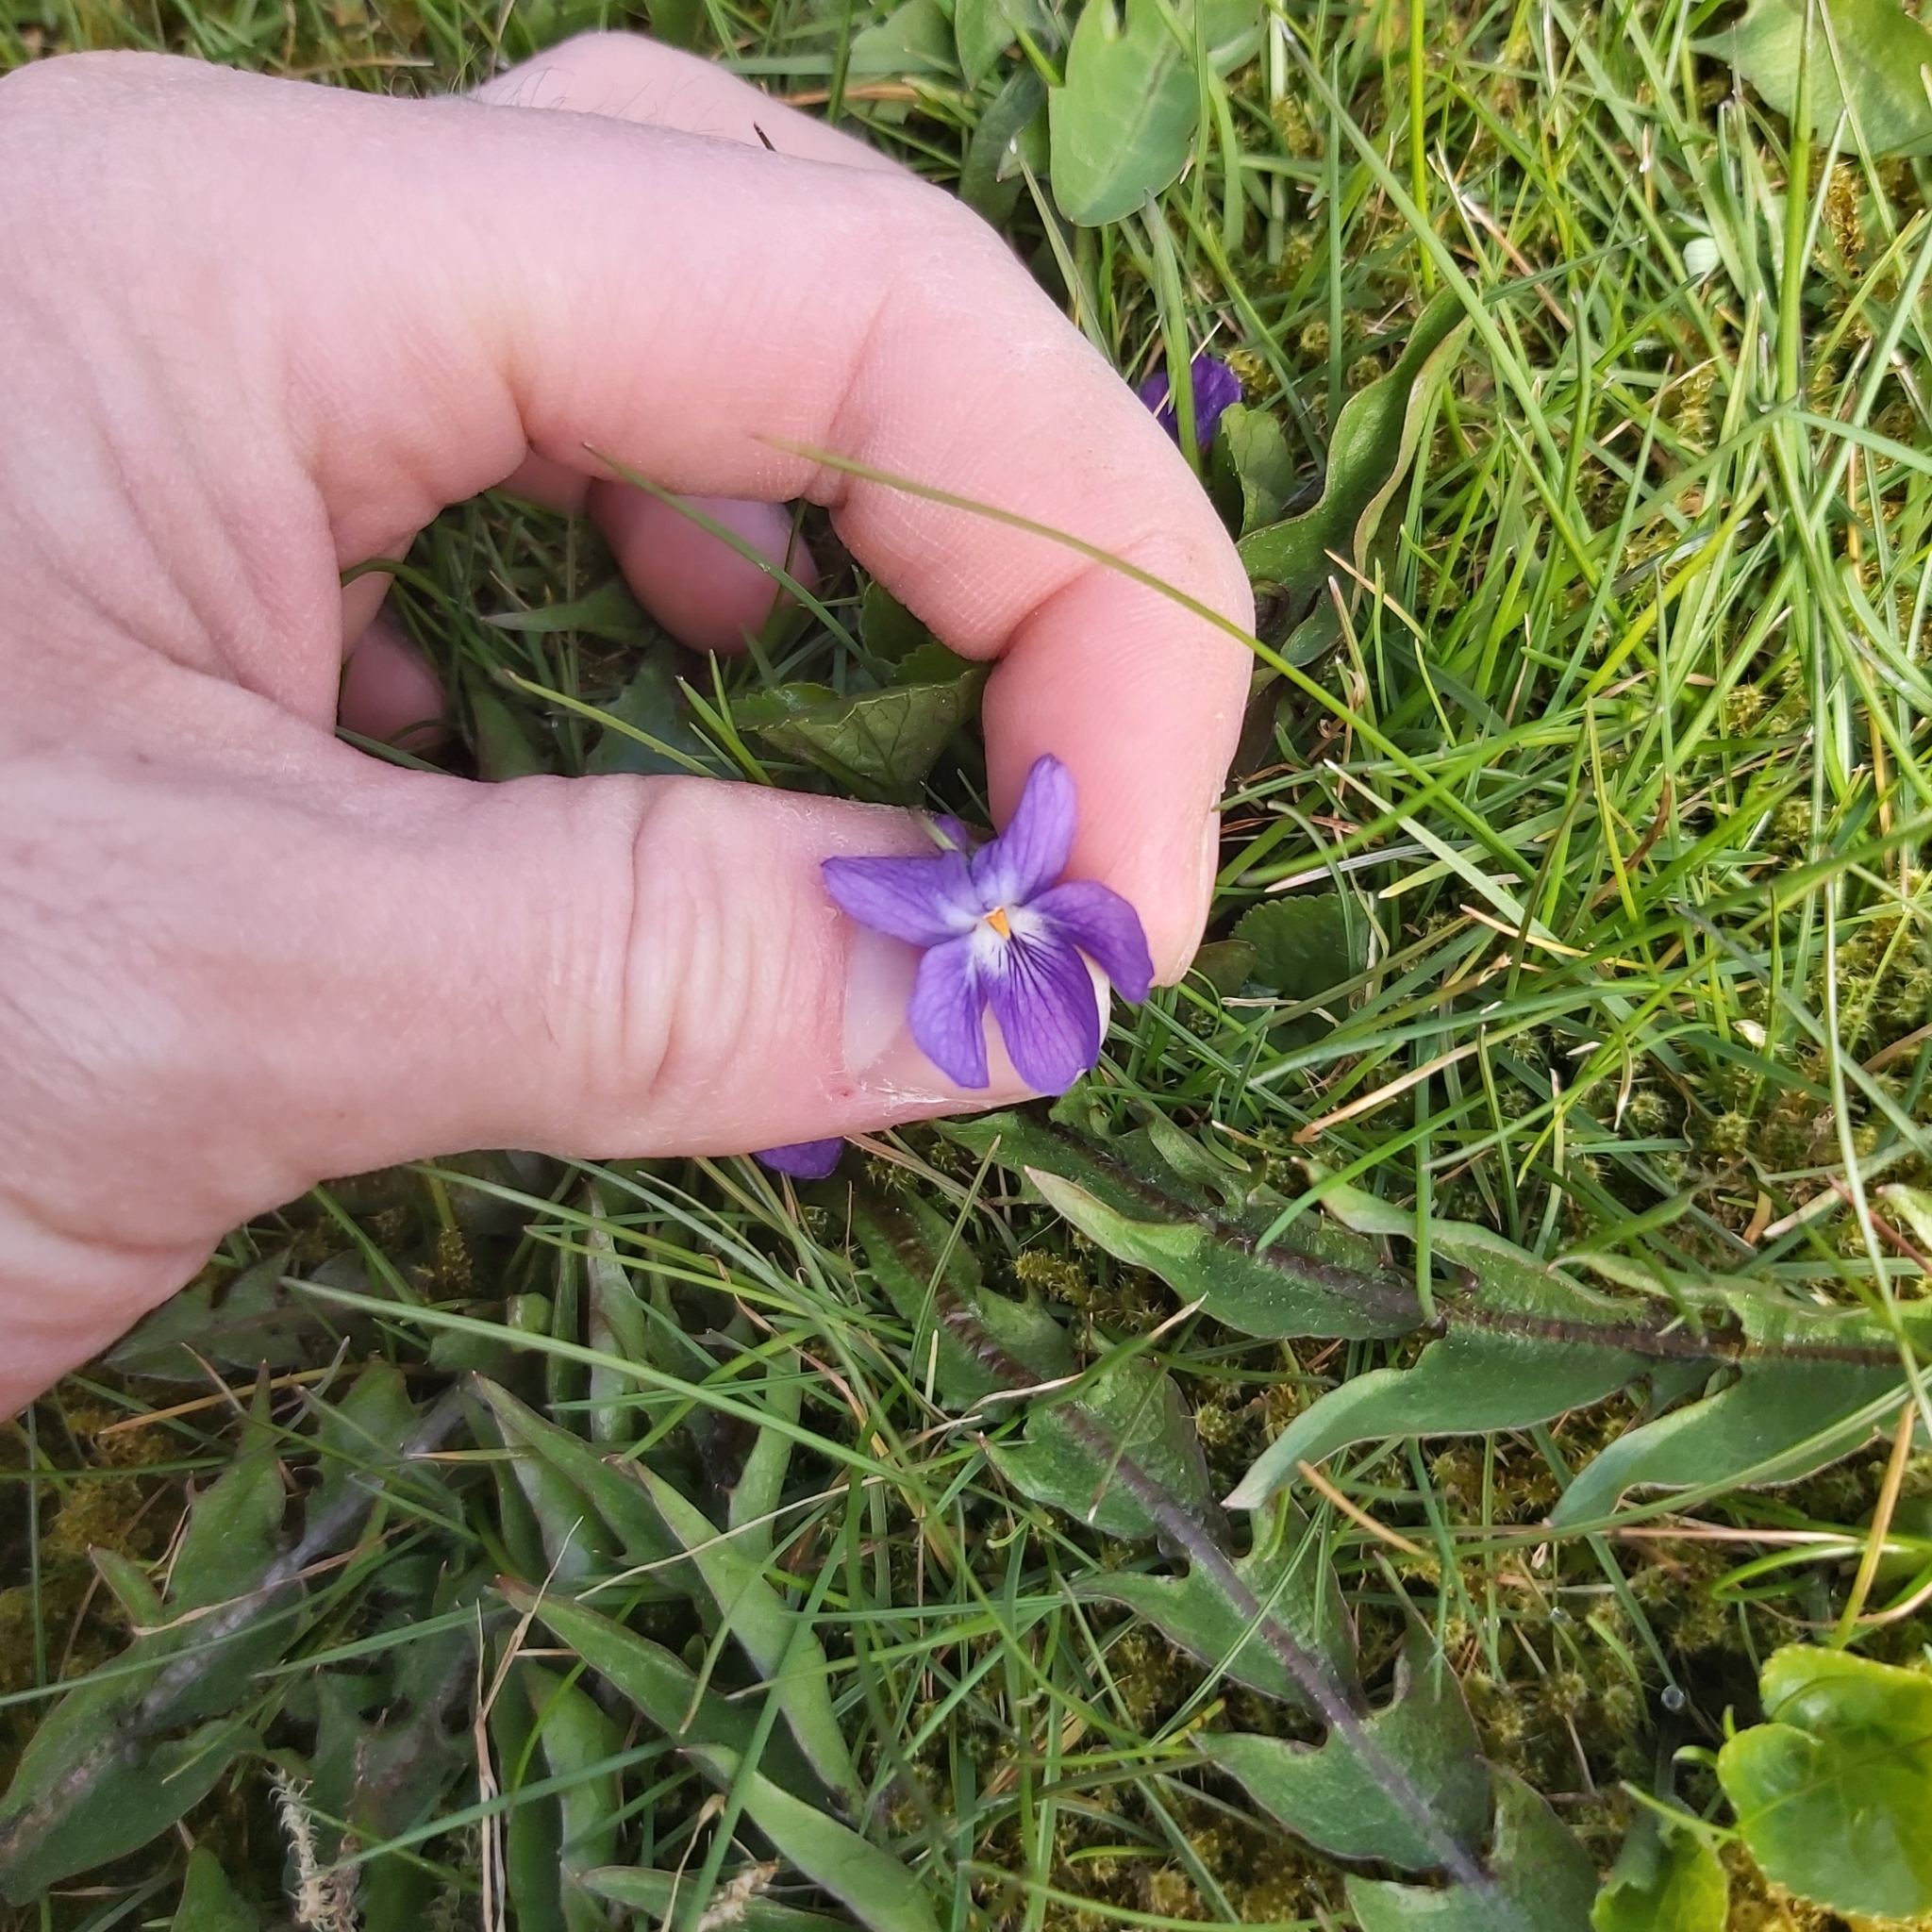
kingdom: Plantae
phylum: Tracheophyta
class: Magnoliopsida
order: Malpighiales
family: Violaceae
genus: Viola
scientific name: Viola odorata
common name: Sweet violet
